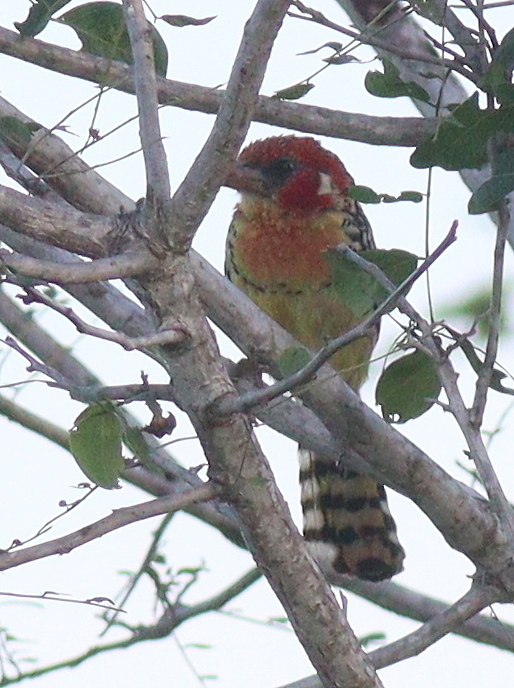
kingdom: Animalia
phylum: Chordata
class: Aves
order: Piciformes
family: Lybiidae
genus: Trachyphonus
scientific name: Trachyphonus erythrocephalus
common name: Red-and-yellow barbet
